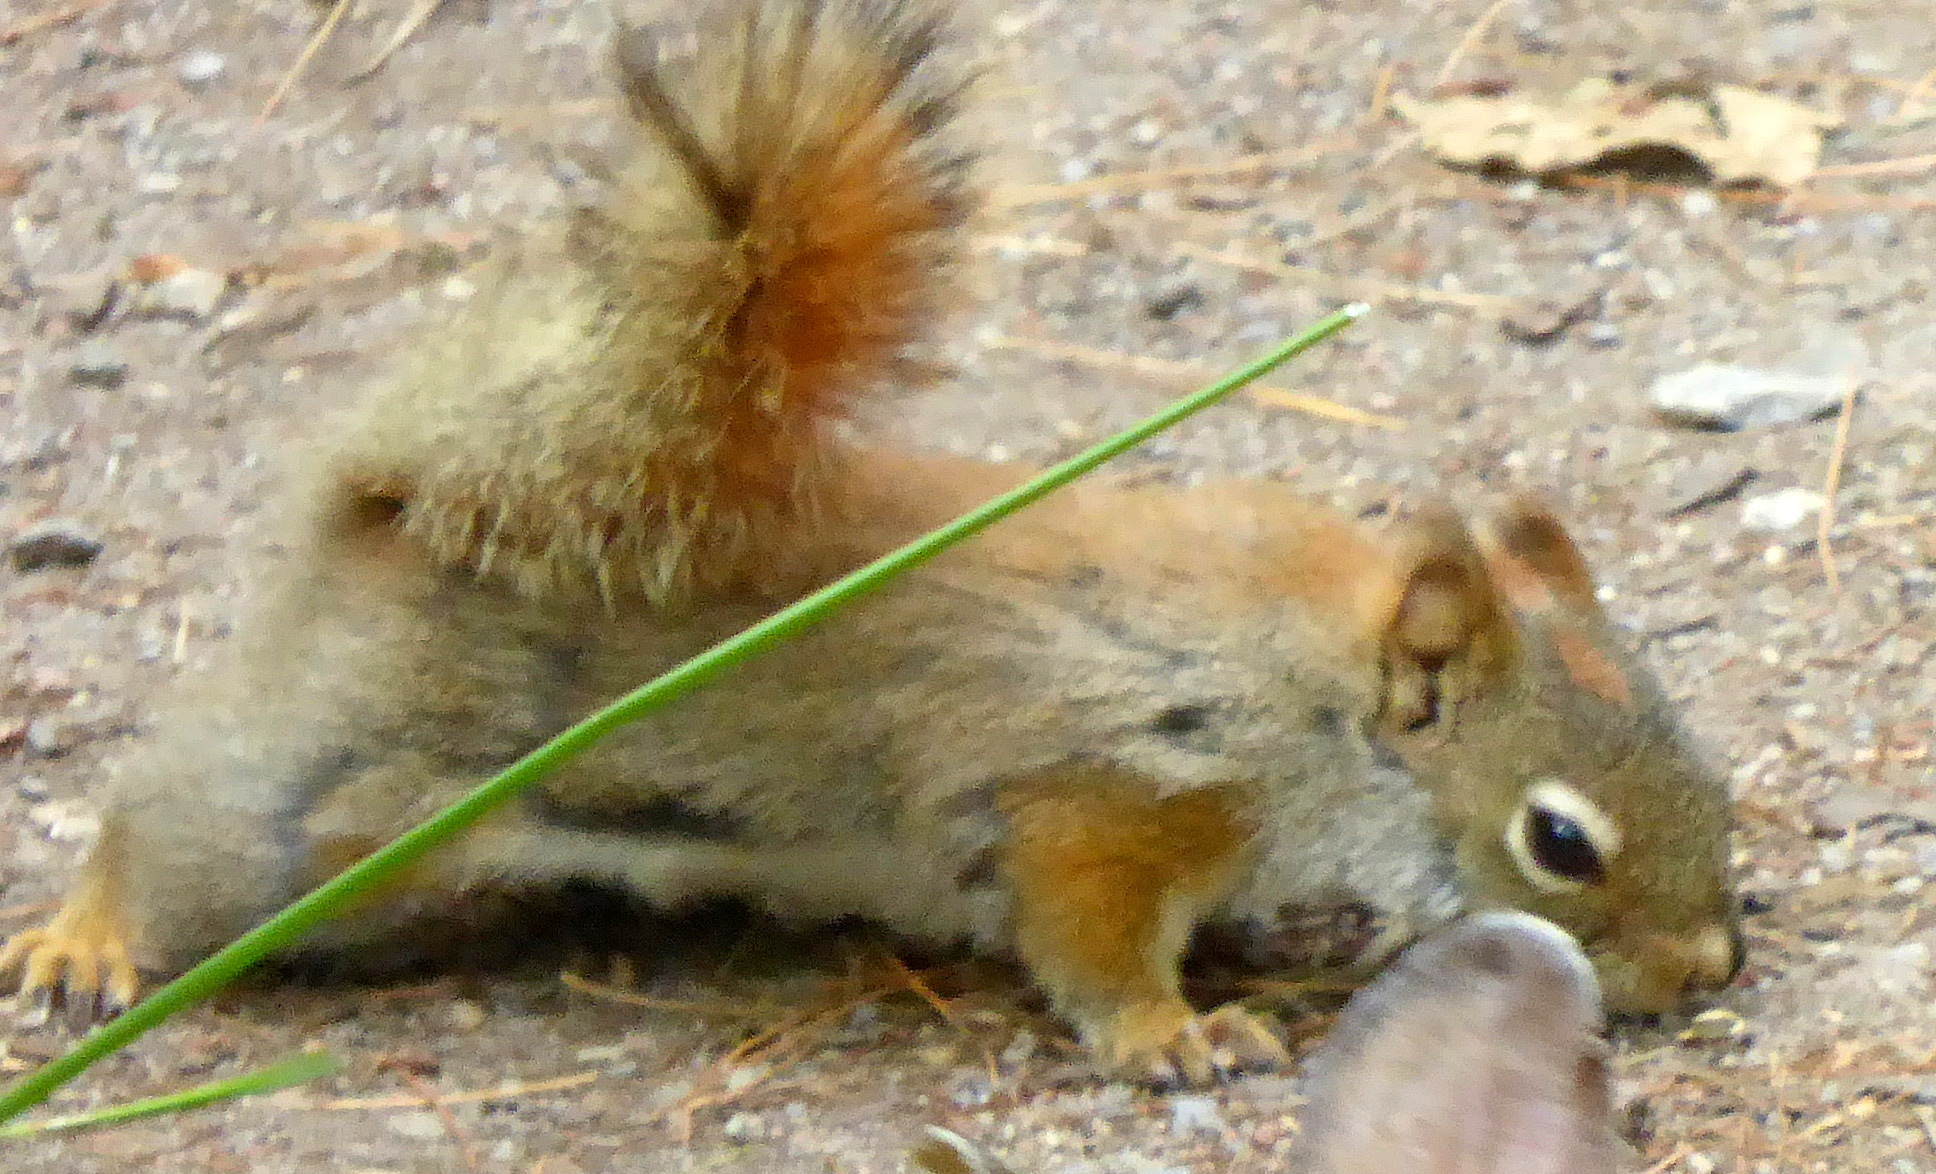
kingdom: Animalia
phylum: Chordata
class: Mammalia
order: Rodentia
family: Sciuridae
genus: Tamiasciurus
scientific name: Tamiasciurus hudsonicus
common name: Red squirrel
